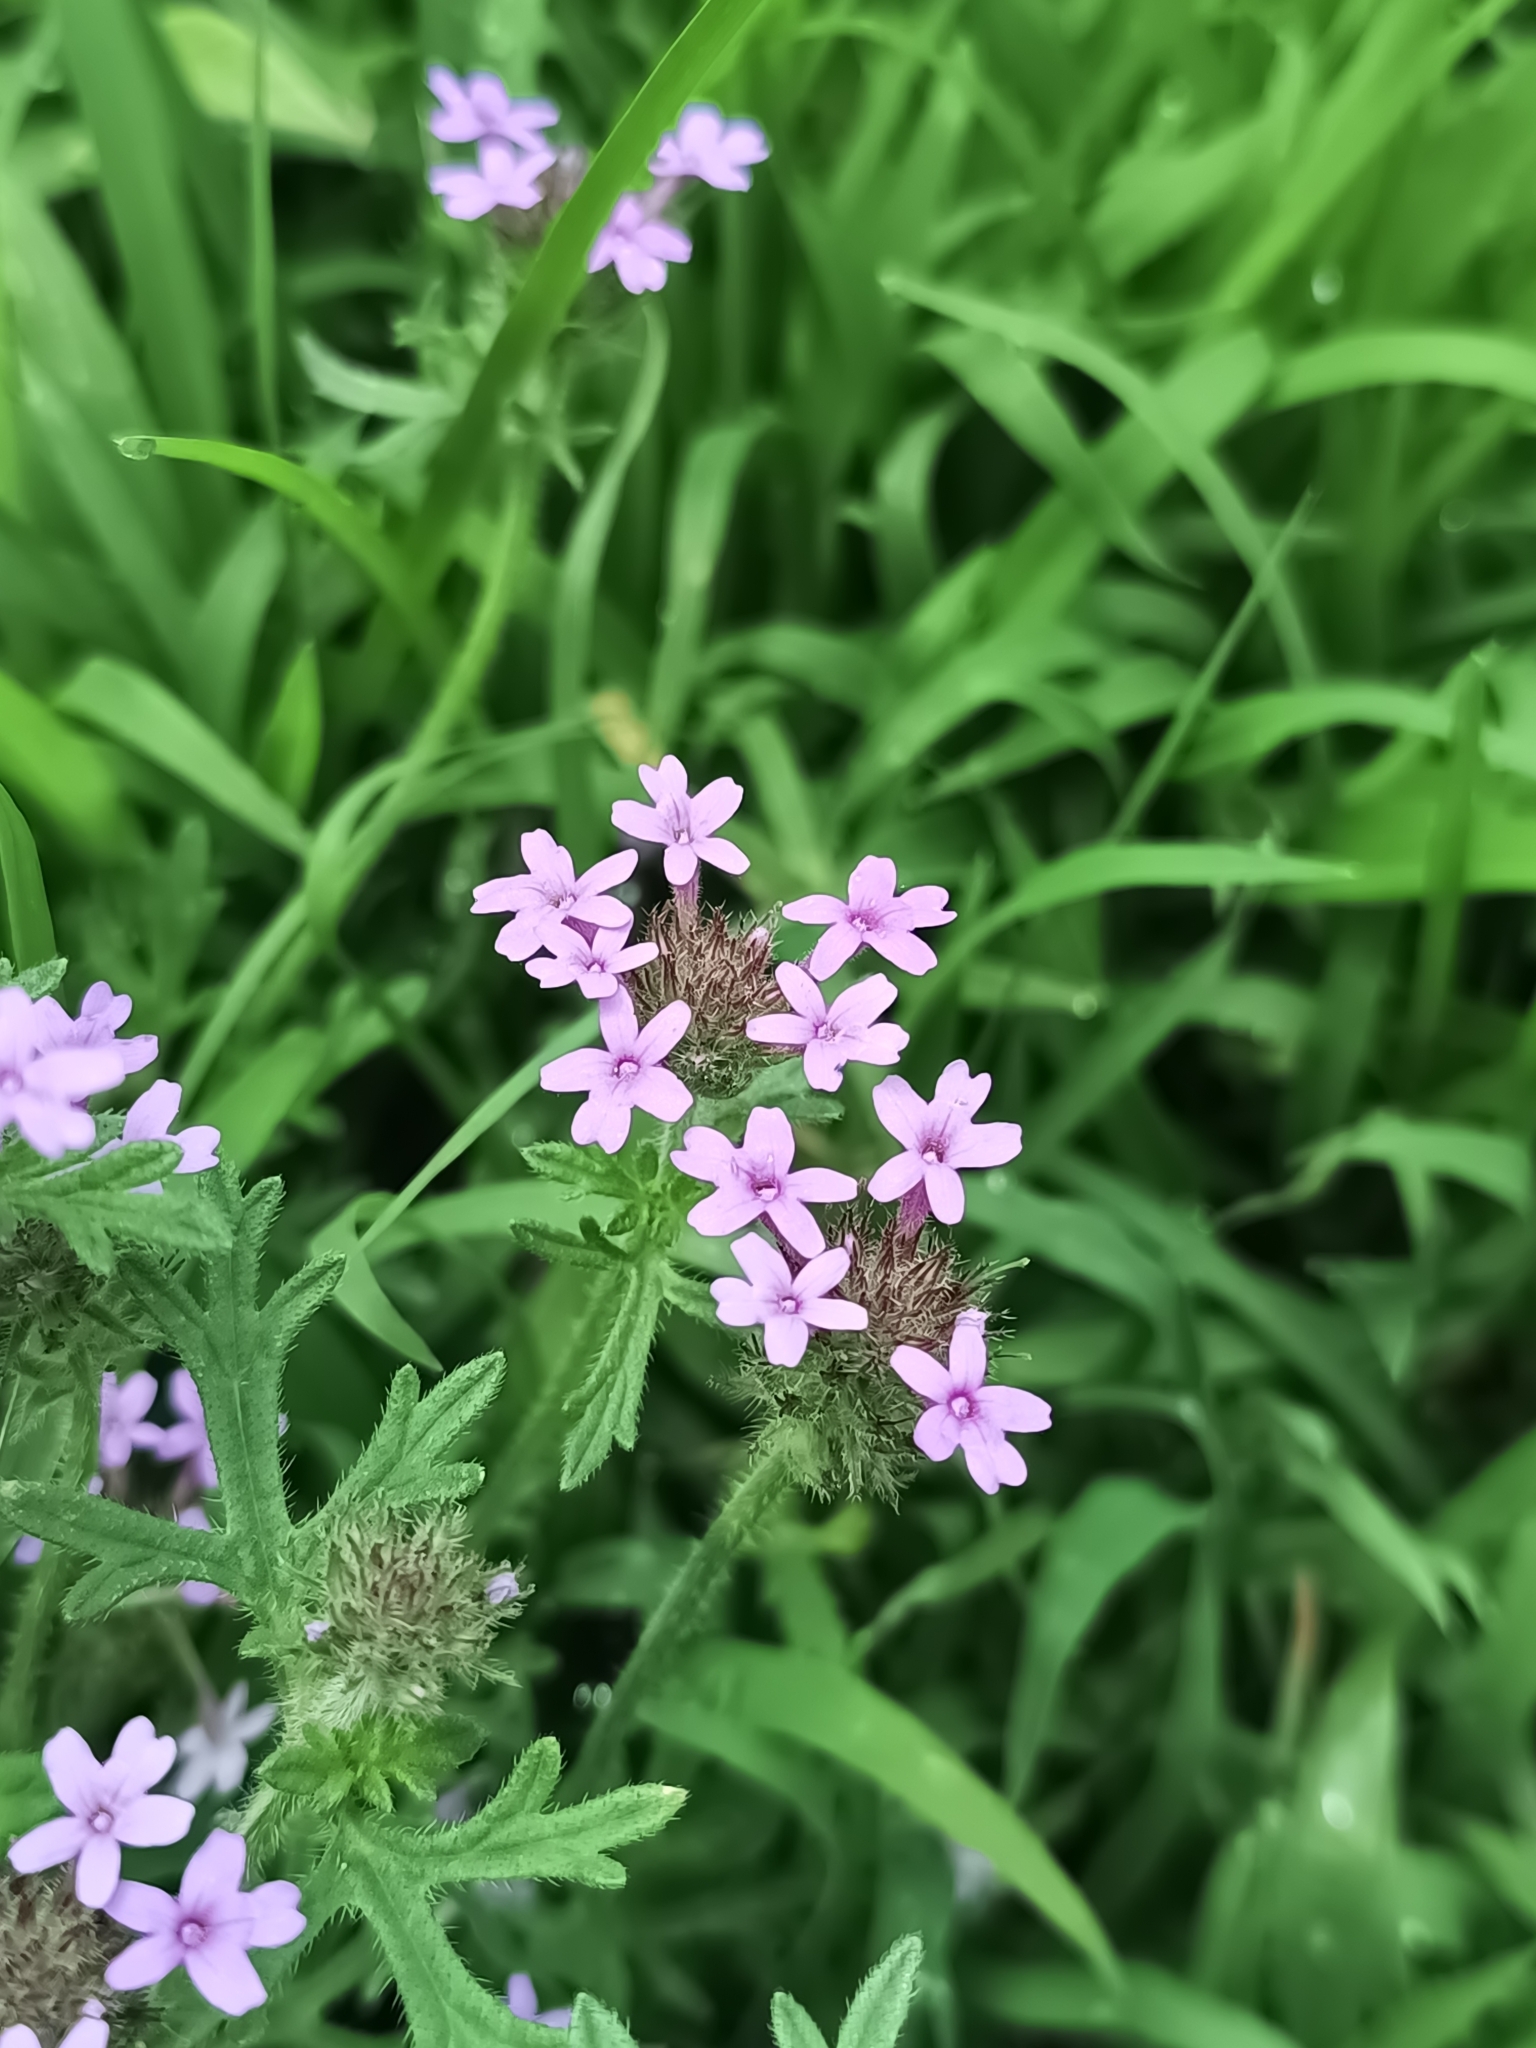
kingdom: Plantae
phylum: Tracheophyta
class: Magnoliopsida
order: Lamiales
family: Verbenaceae
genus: Verbena
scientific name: Verbena bipinnatifida
